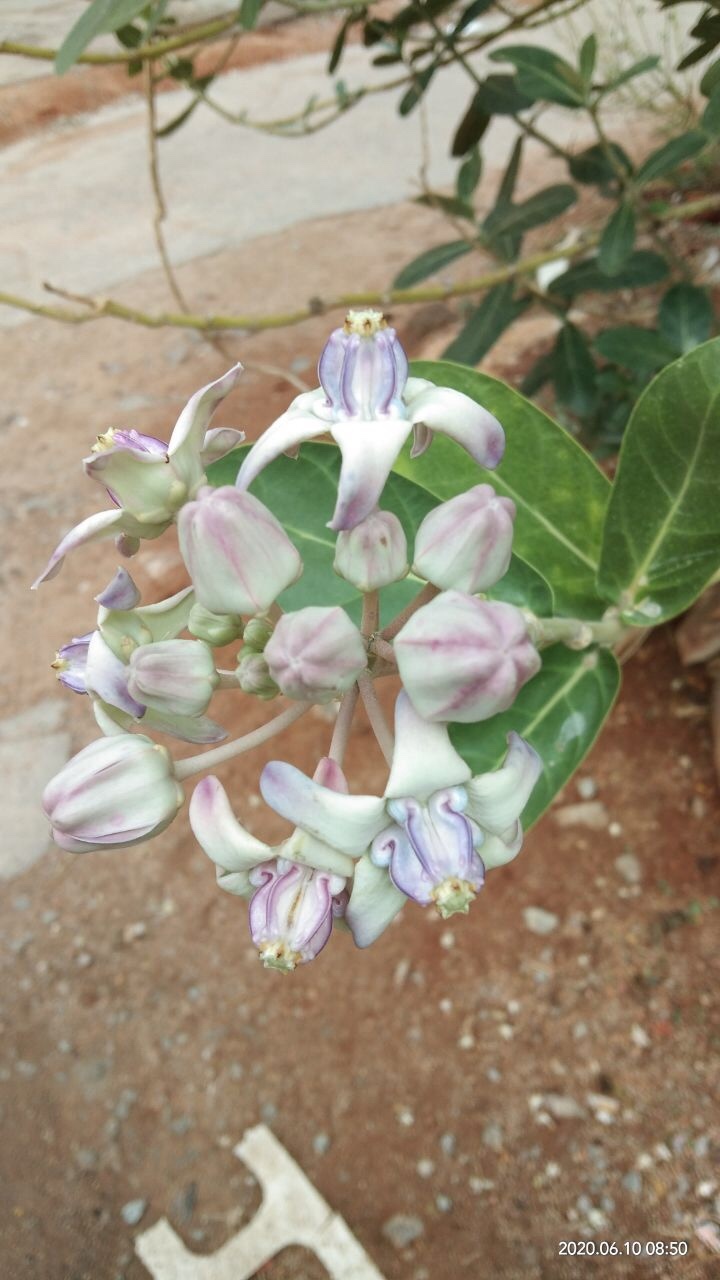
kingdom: Plantae
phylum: Tracheophyta
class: Magnoliopsida
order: Gentianales
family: Apocynaceae
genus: Calotropis
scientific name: Calotropis gigantea
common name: Crown flower
